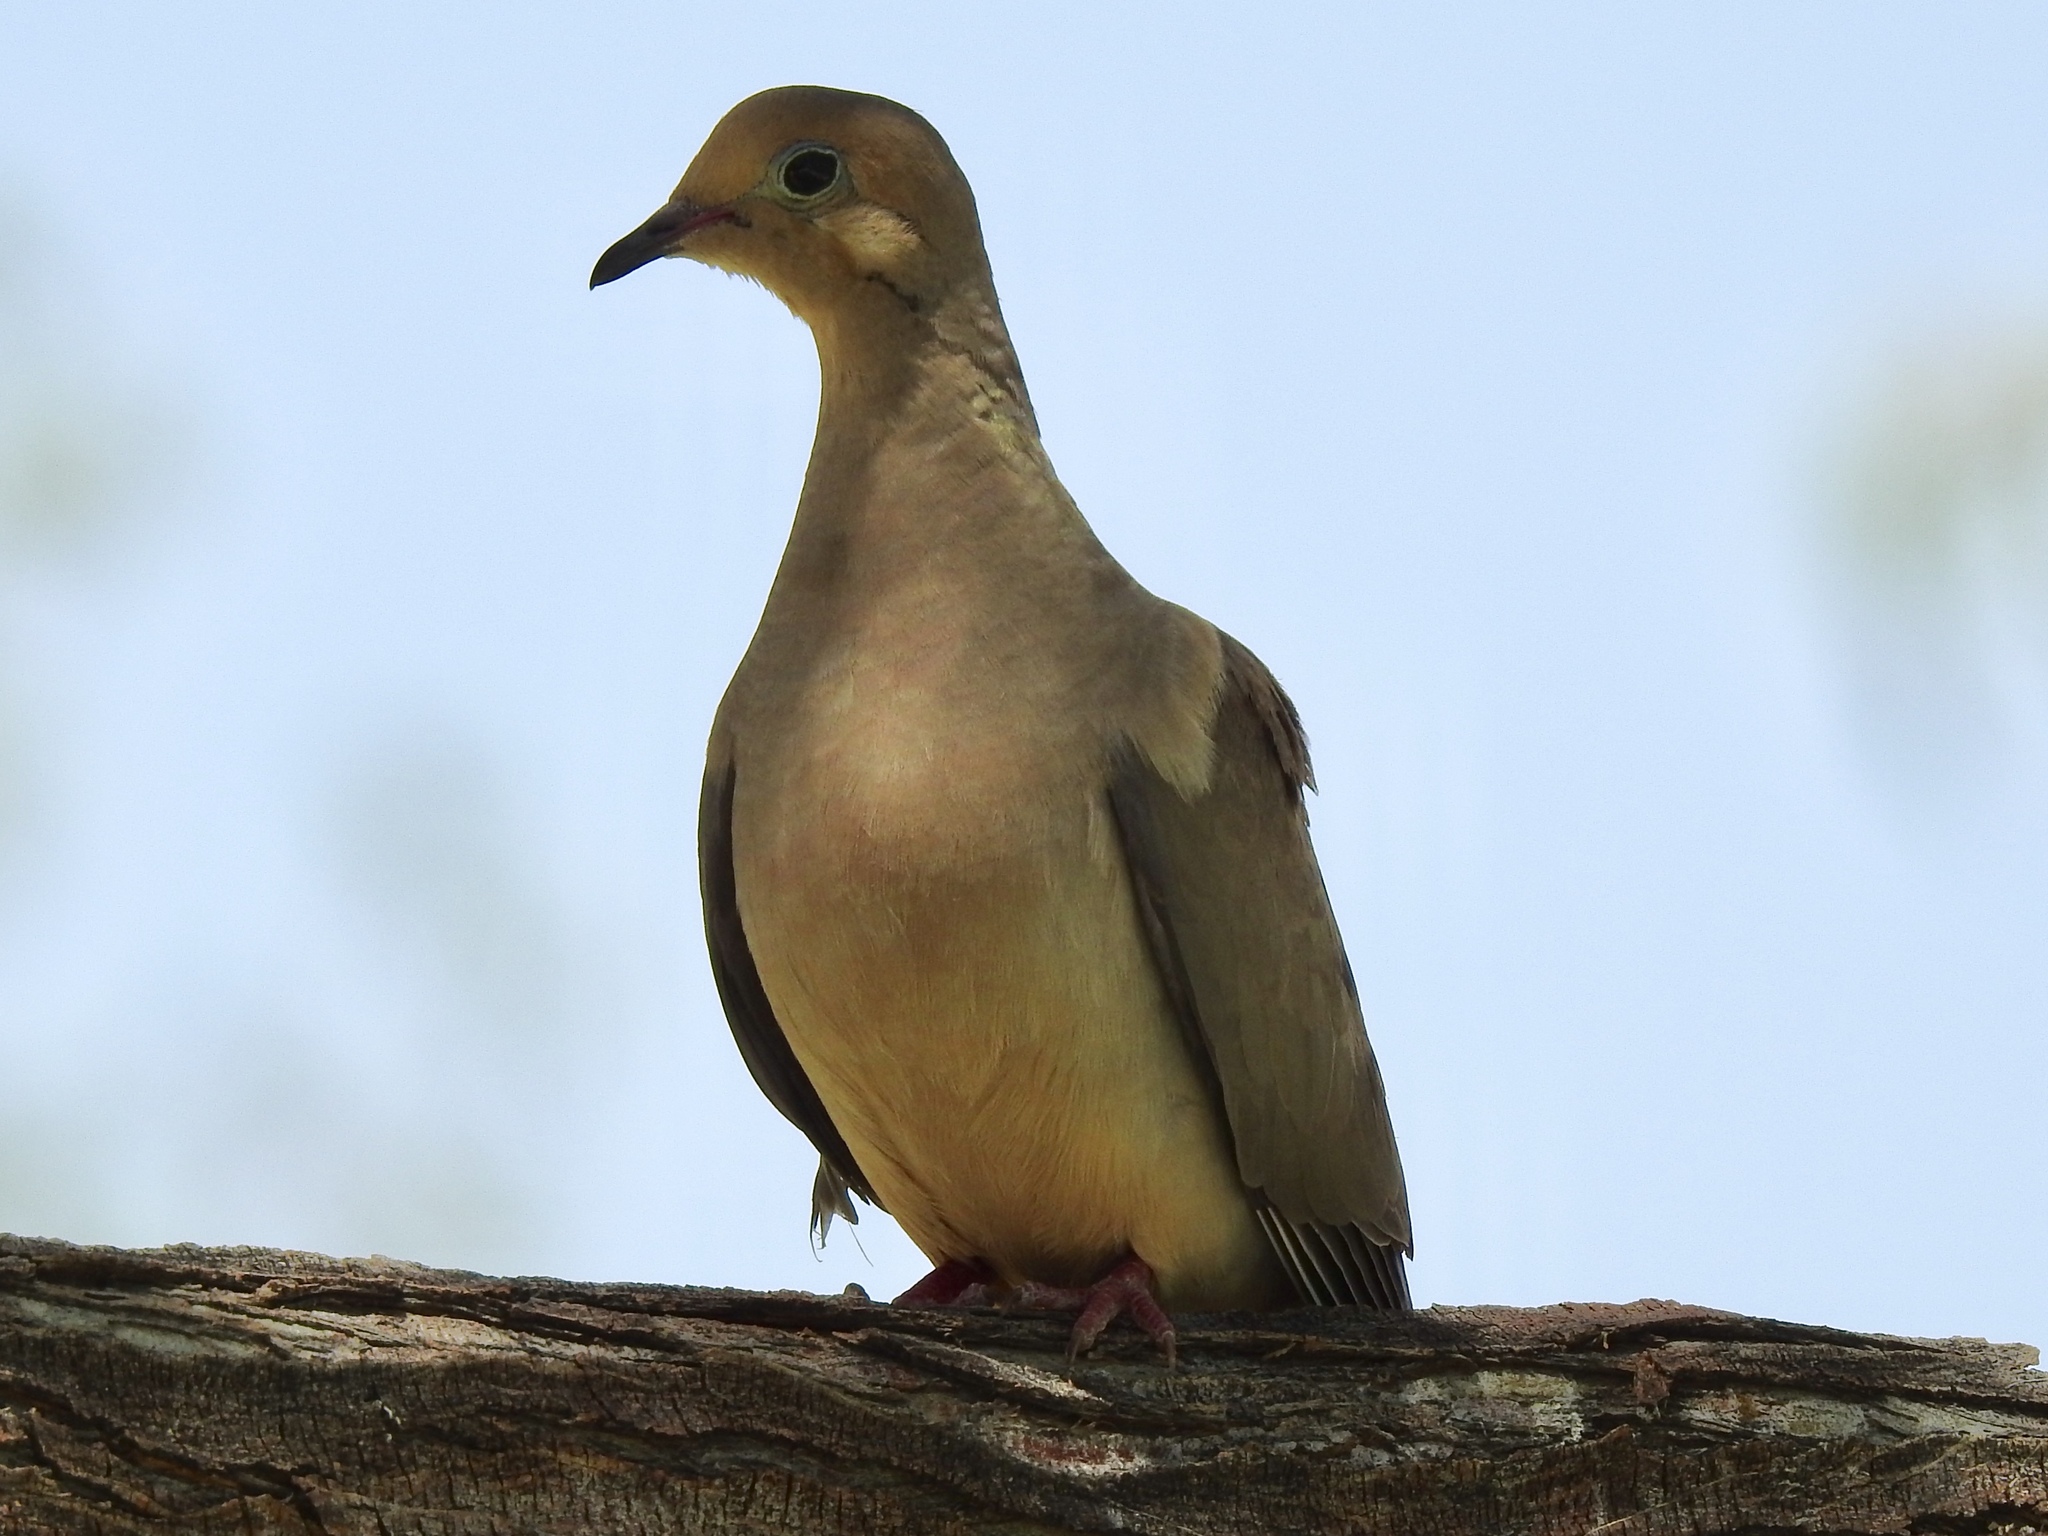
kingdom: Animalia
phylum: Chordata
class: Aves
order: Columbiformes
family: Columbidae
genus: Zenaida
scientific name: Zenaida macroura
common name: Mourning dove
